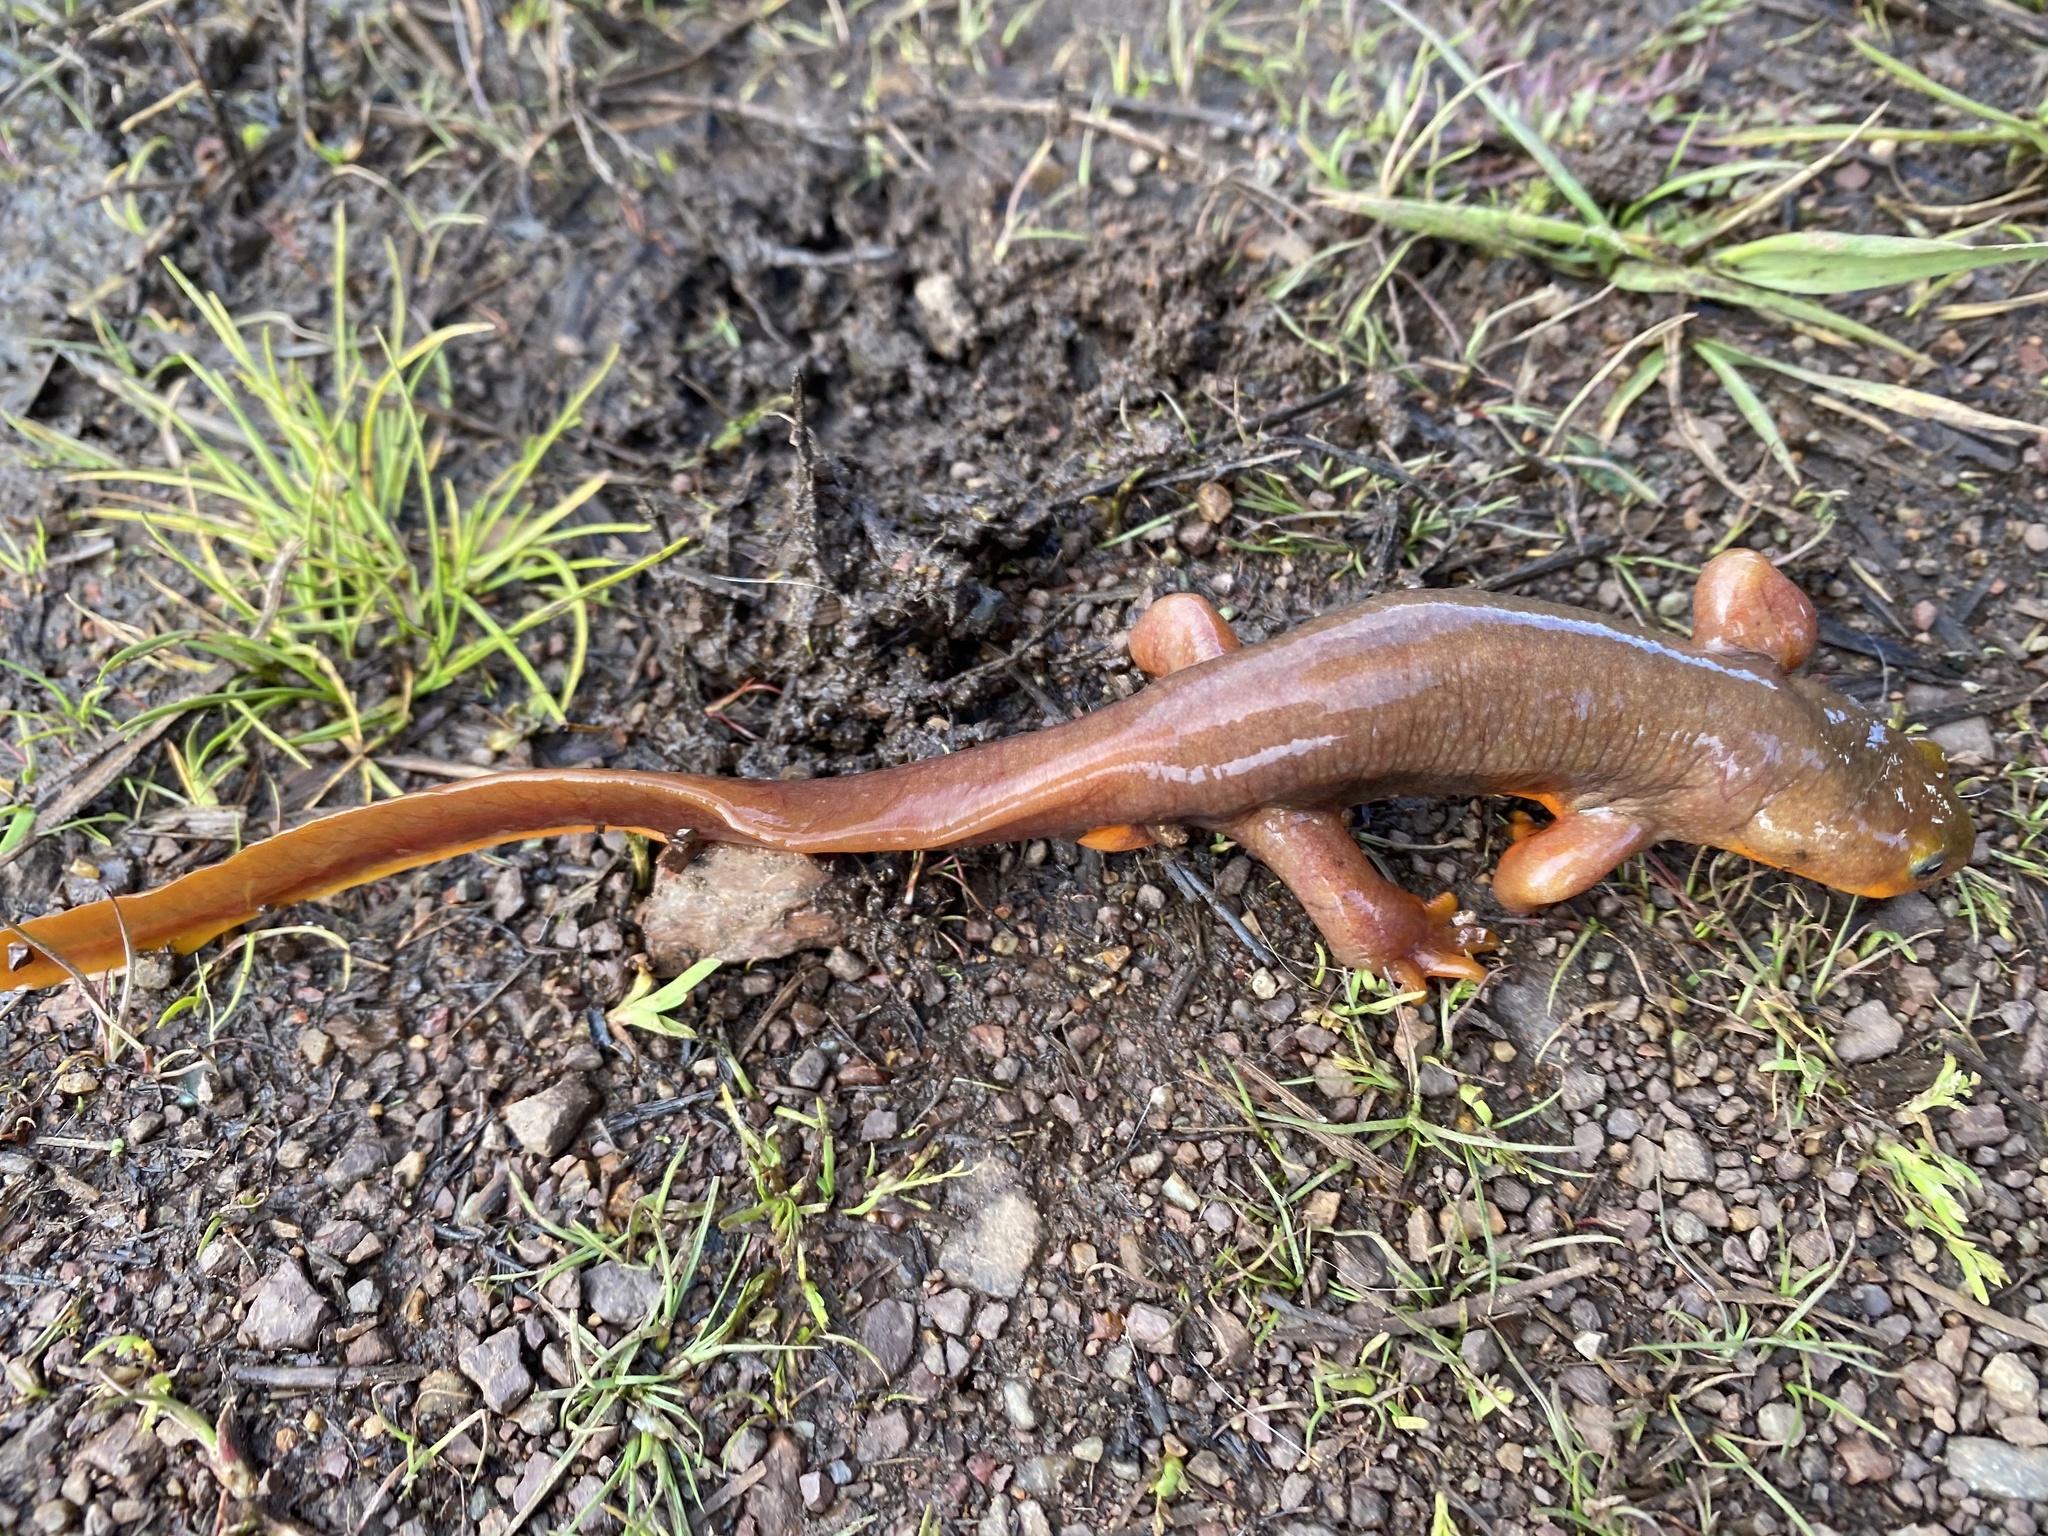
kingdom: Animalia
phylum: Chordata
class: Amphibia
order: Caudata
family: Salamandridae
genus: Taricha
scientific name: Taricha torosa
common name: California newt
